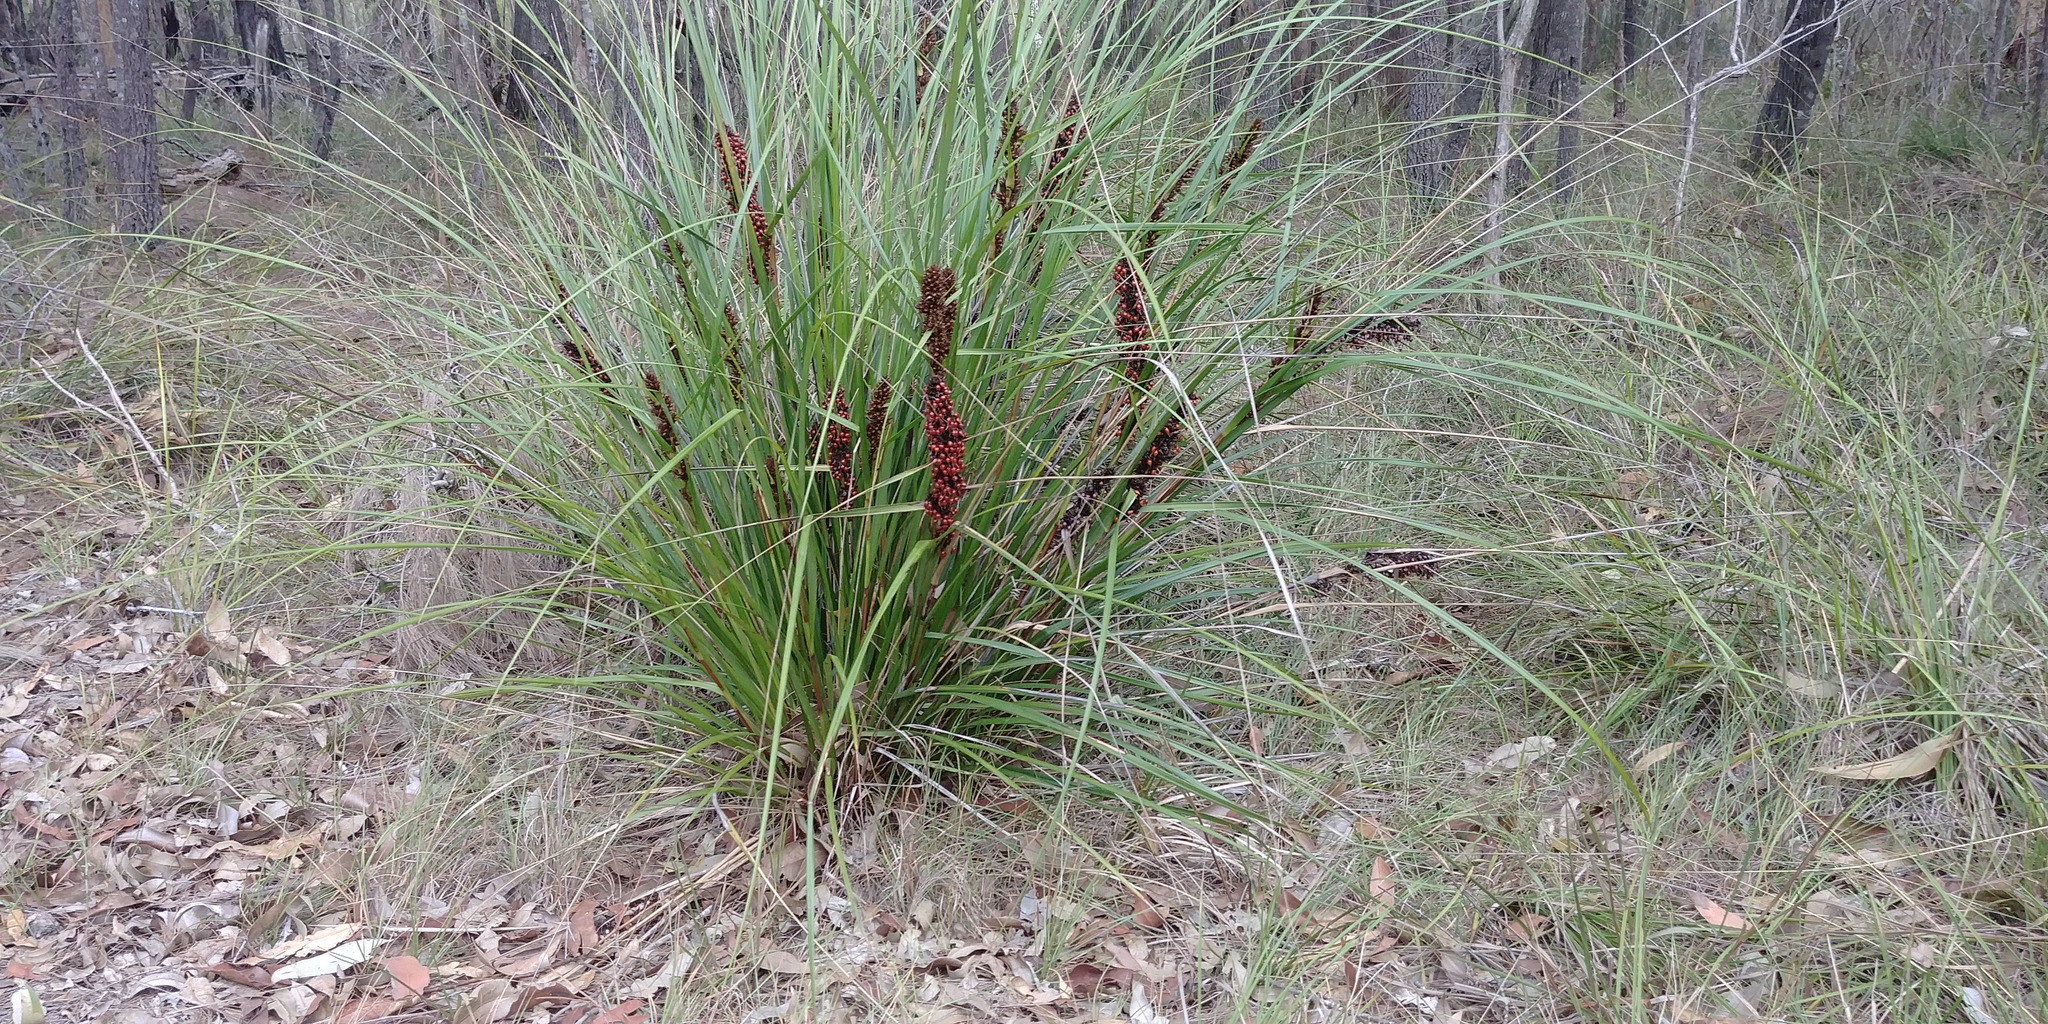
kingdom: Plantae
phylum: Tracheophyta
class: Liliopsida
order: Poales
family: Cyperaceae
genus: Gahnia
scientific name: Gahnia aspera
